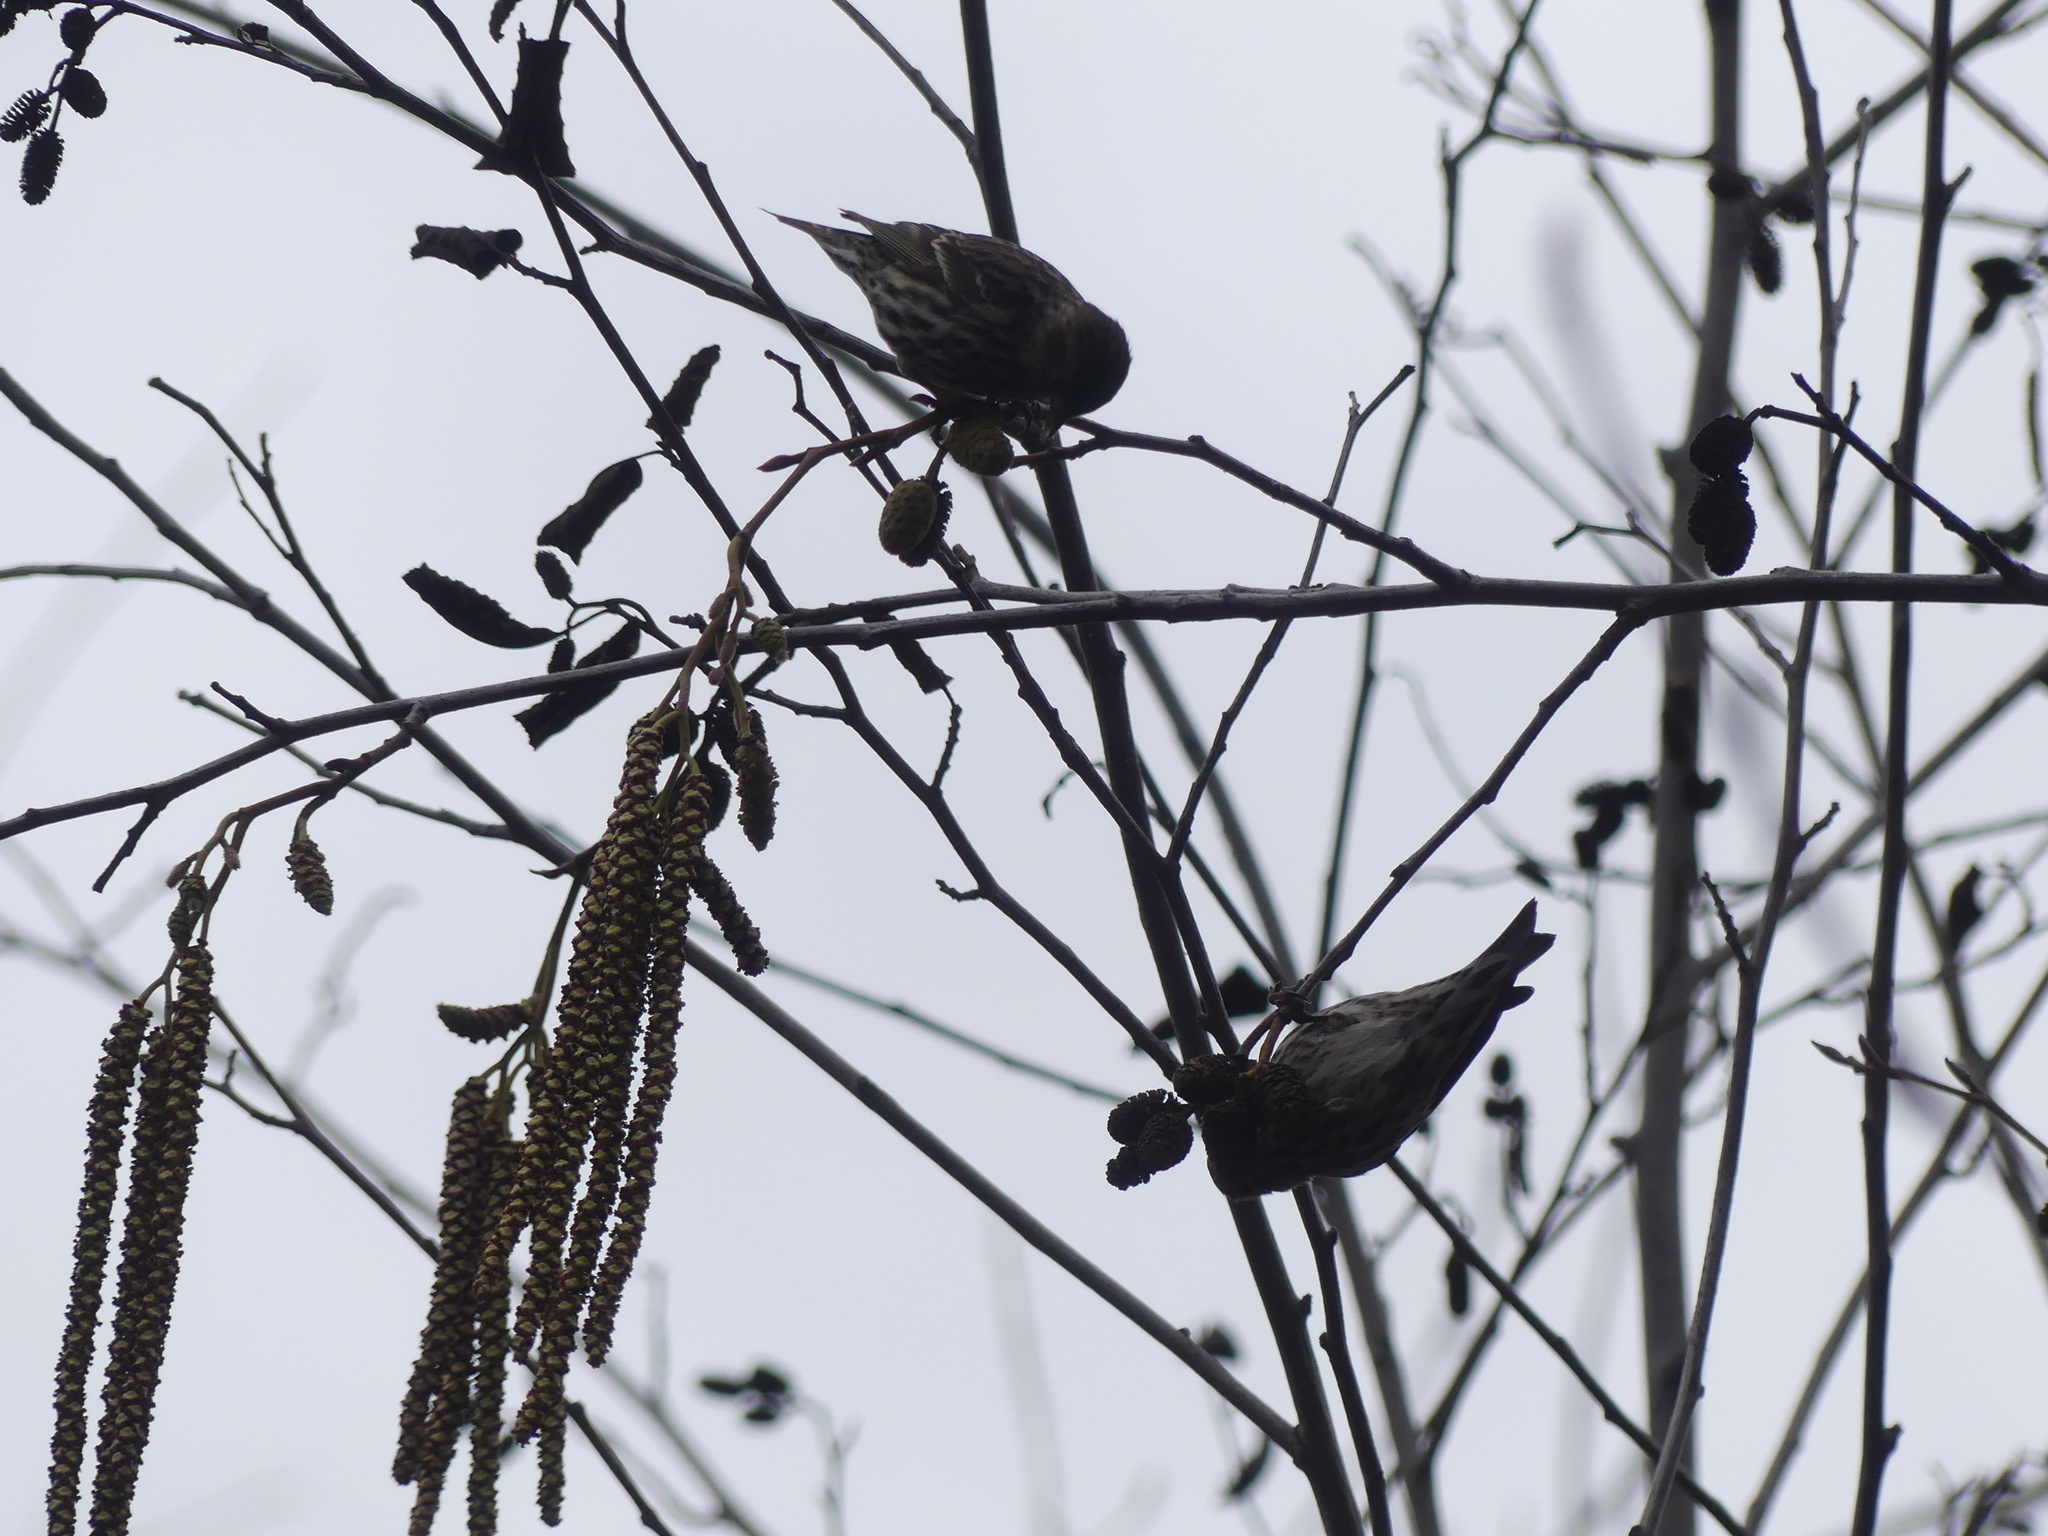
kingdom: Animalia
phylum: Chordata
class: Aves
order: Passeriformes
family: Fringillidae
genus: Spinus
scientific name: Spinus pinus
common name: Pine siskin
